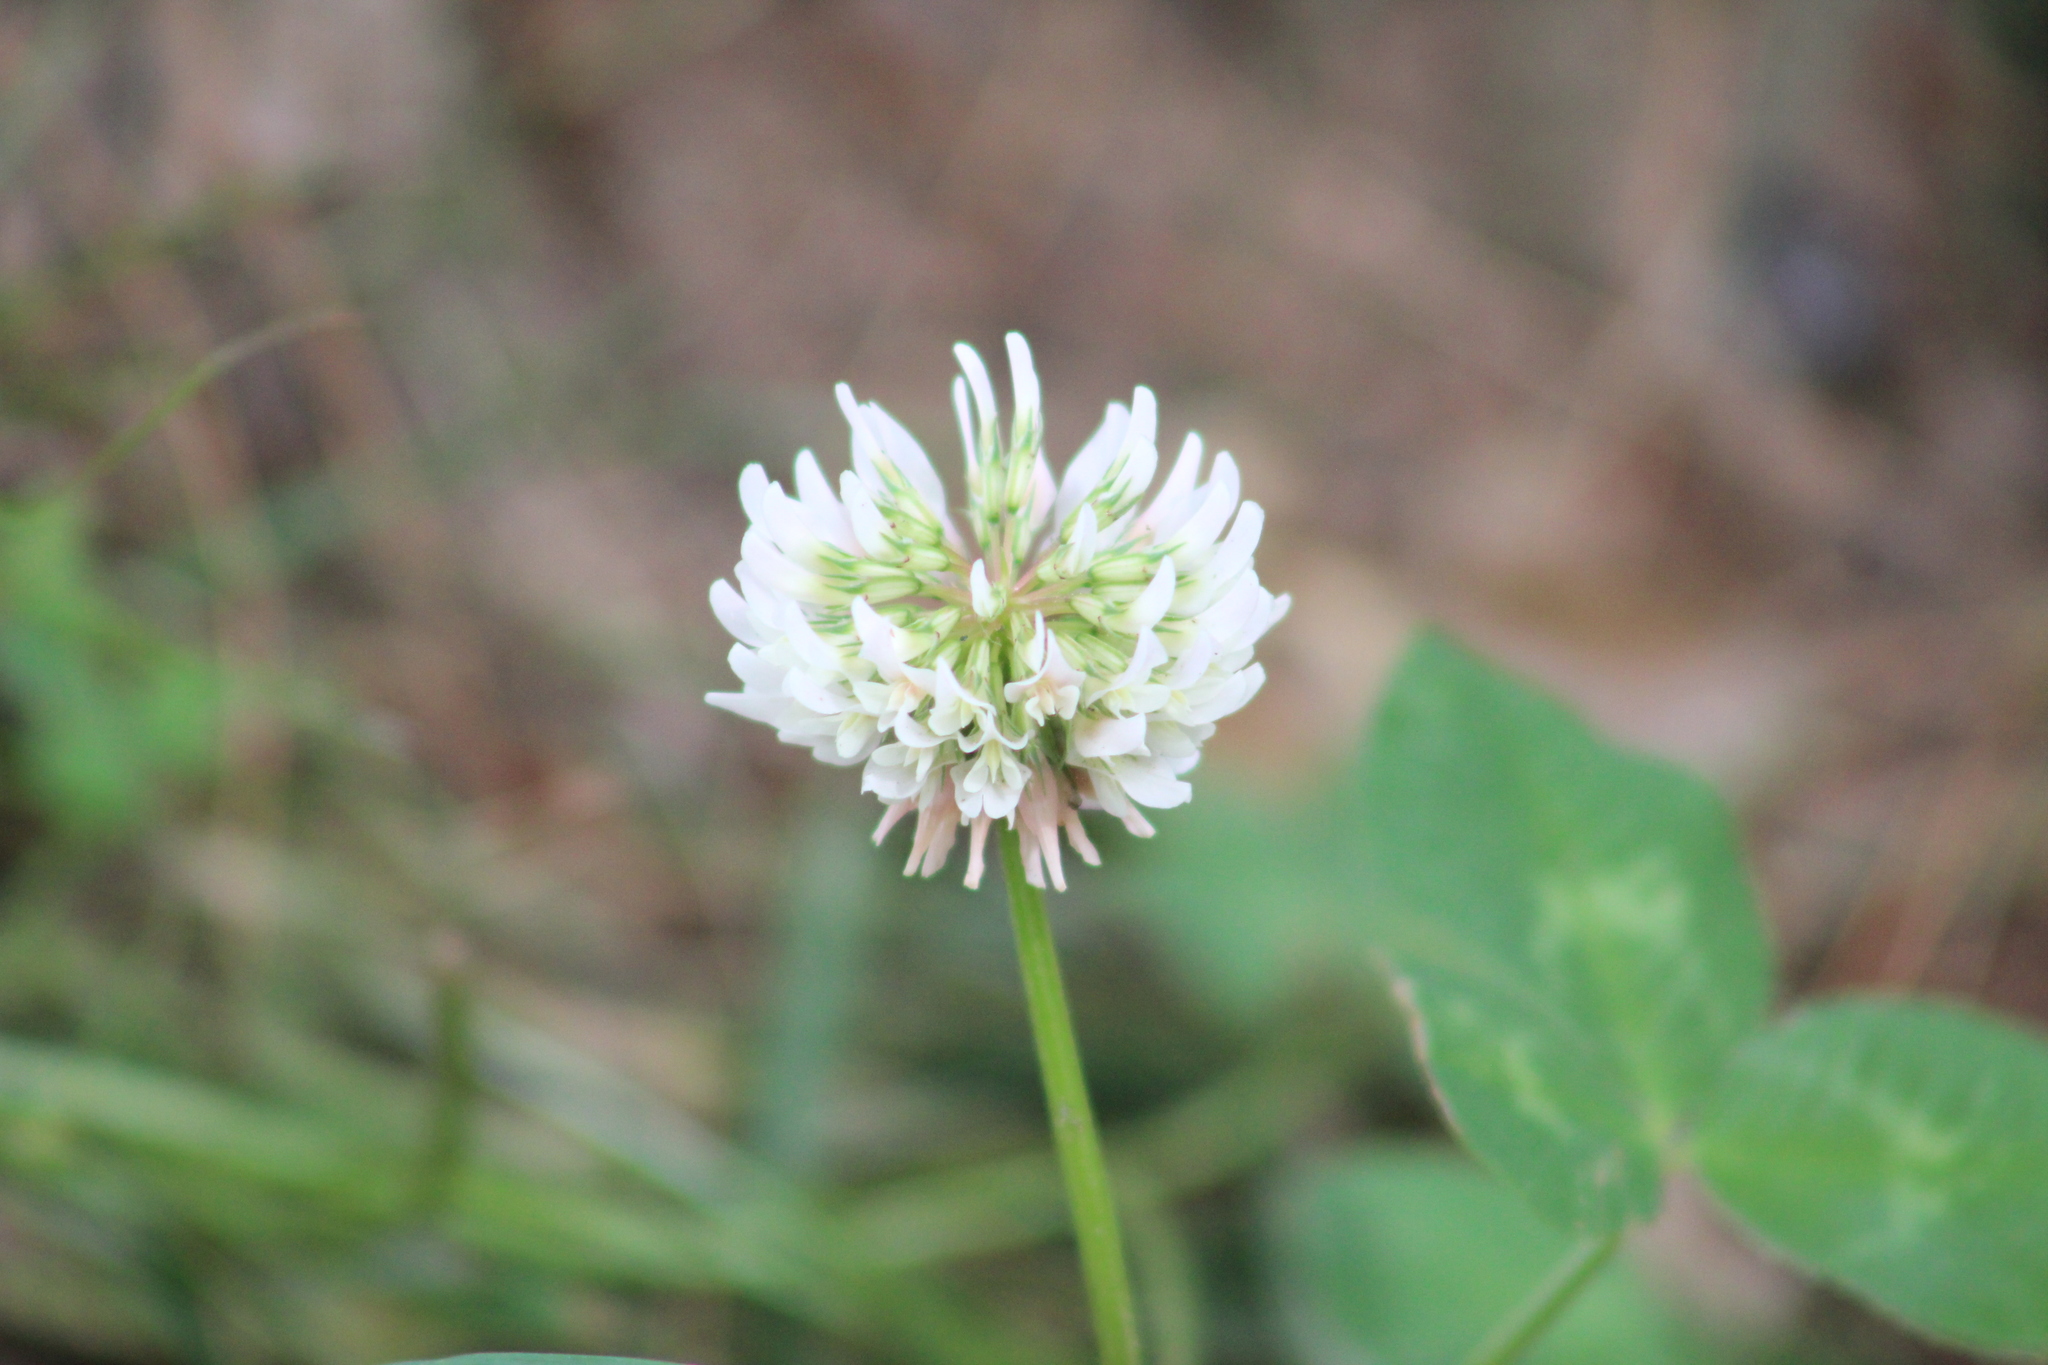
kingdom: Plantae
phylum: Tracheophyta
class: Magnoliopsida
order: Fabales
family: Fabaceae
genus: Trifolium
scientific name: Trifolium repens
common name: White clover
